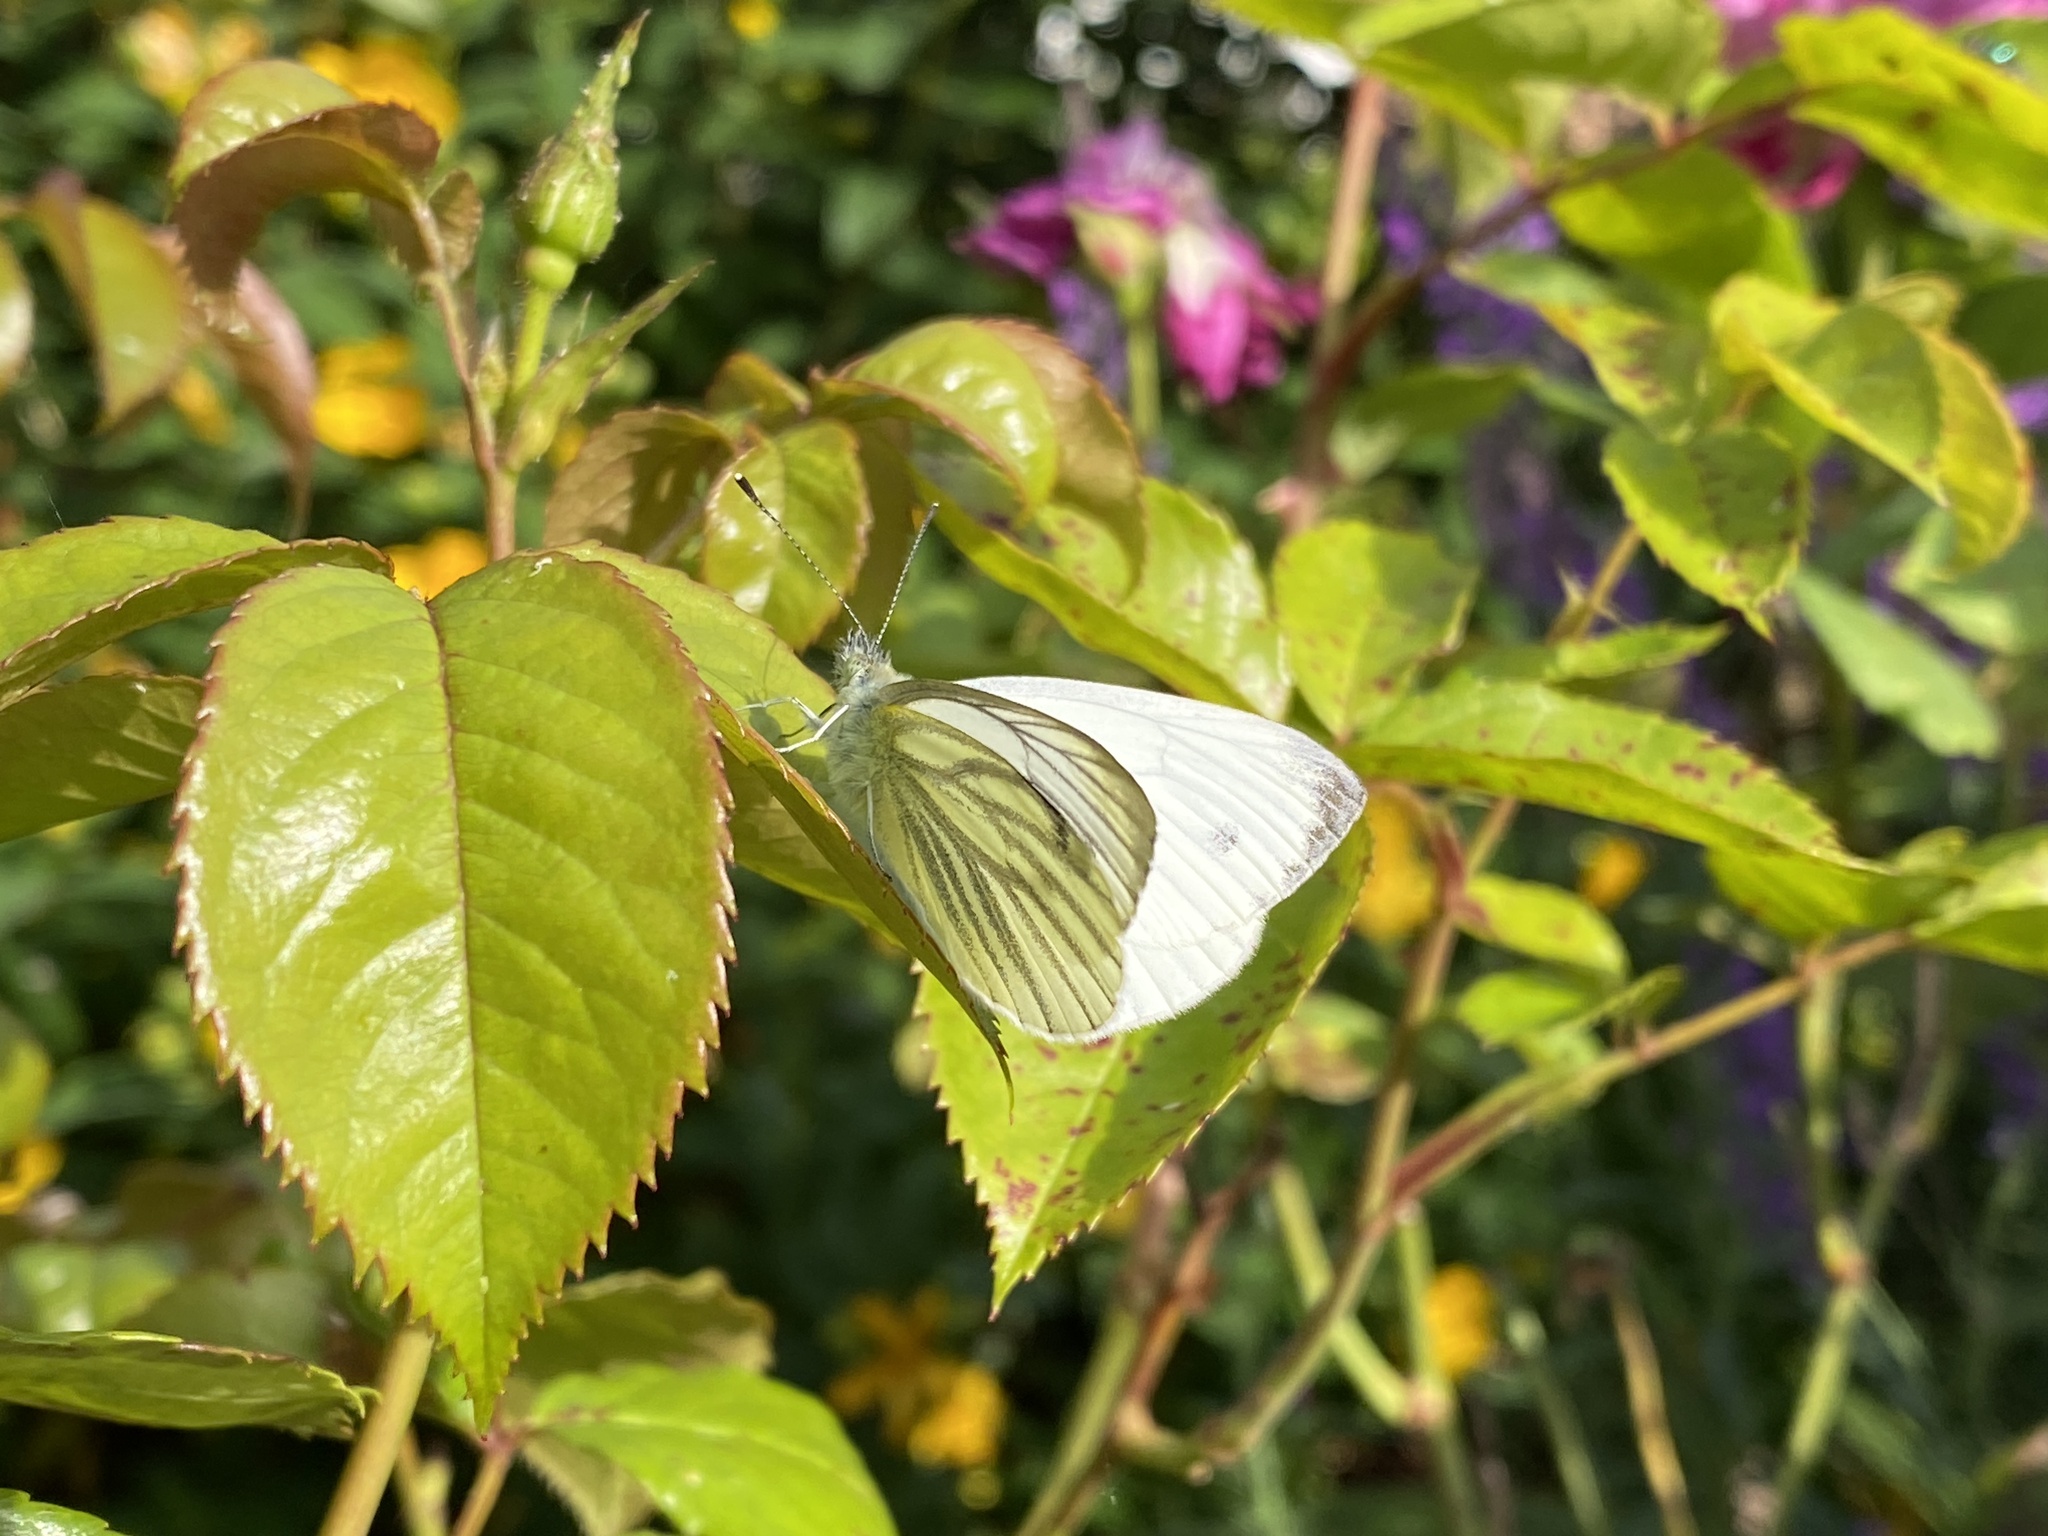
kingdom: Animalia
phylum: Arthropoda
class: Insecta
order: Lepidoptera
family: Pieridae
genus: Pieris
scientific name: Pieris napi
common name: Green-veined white
